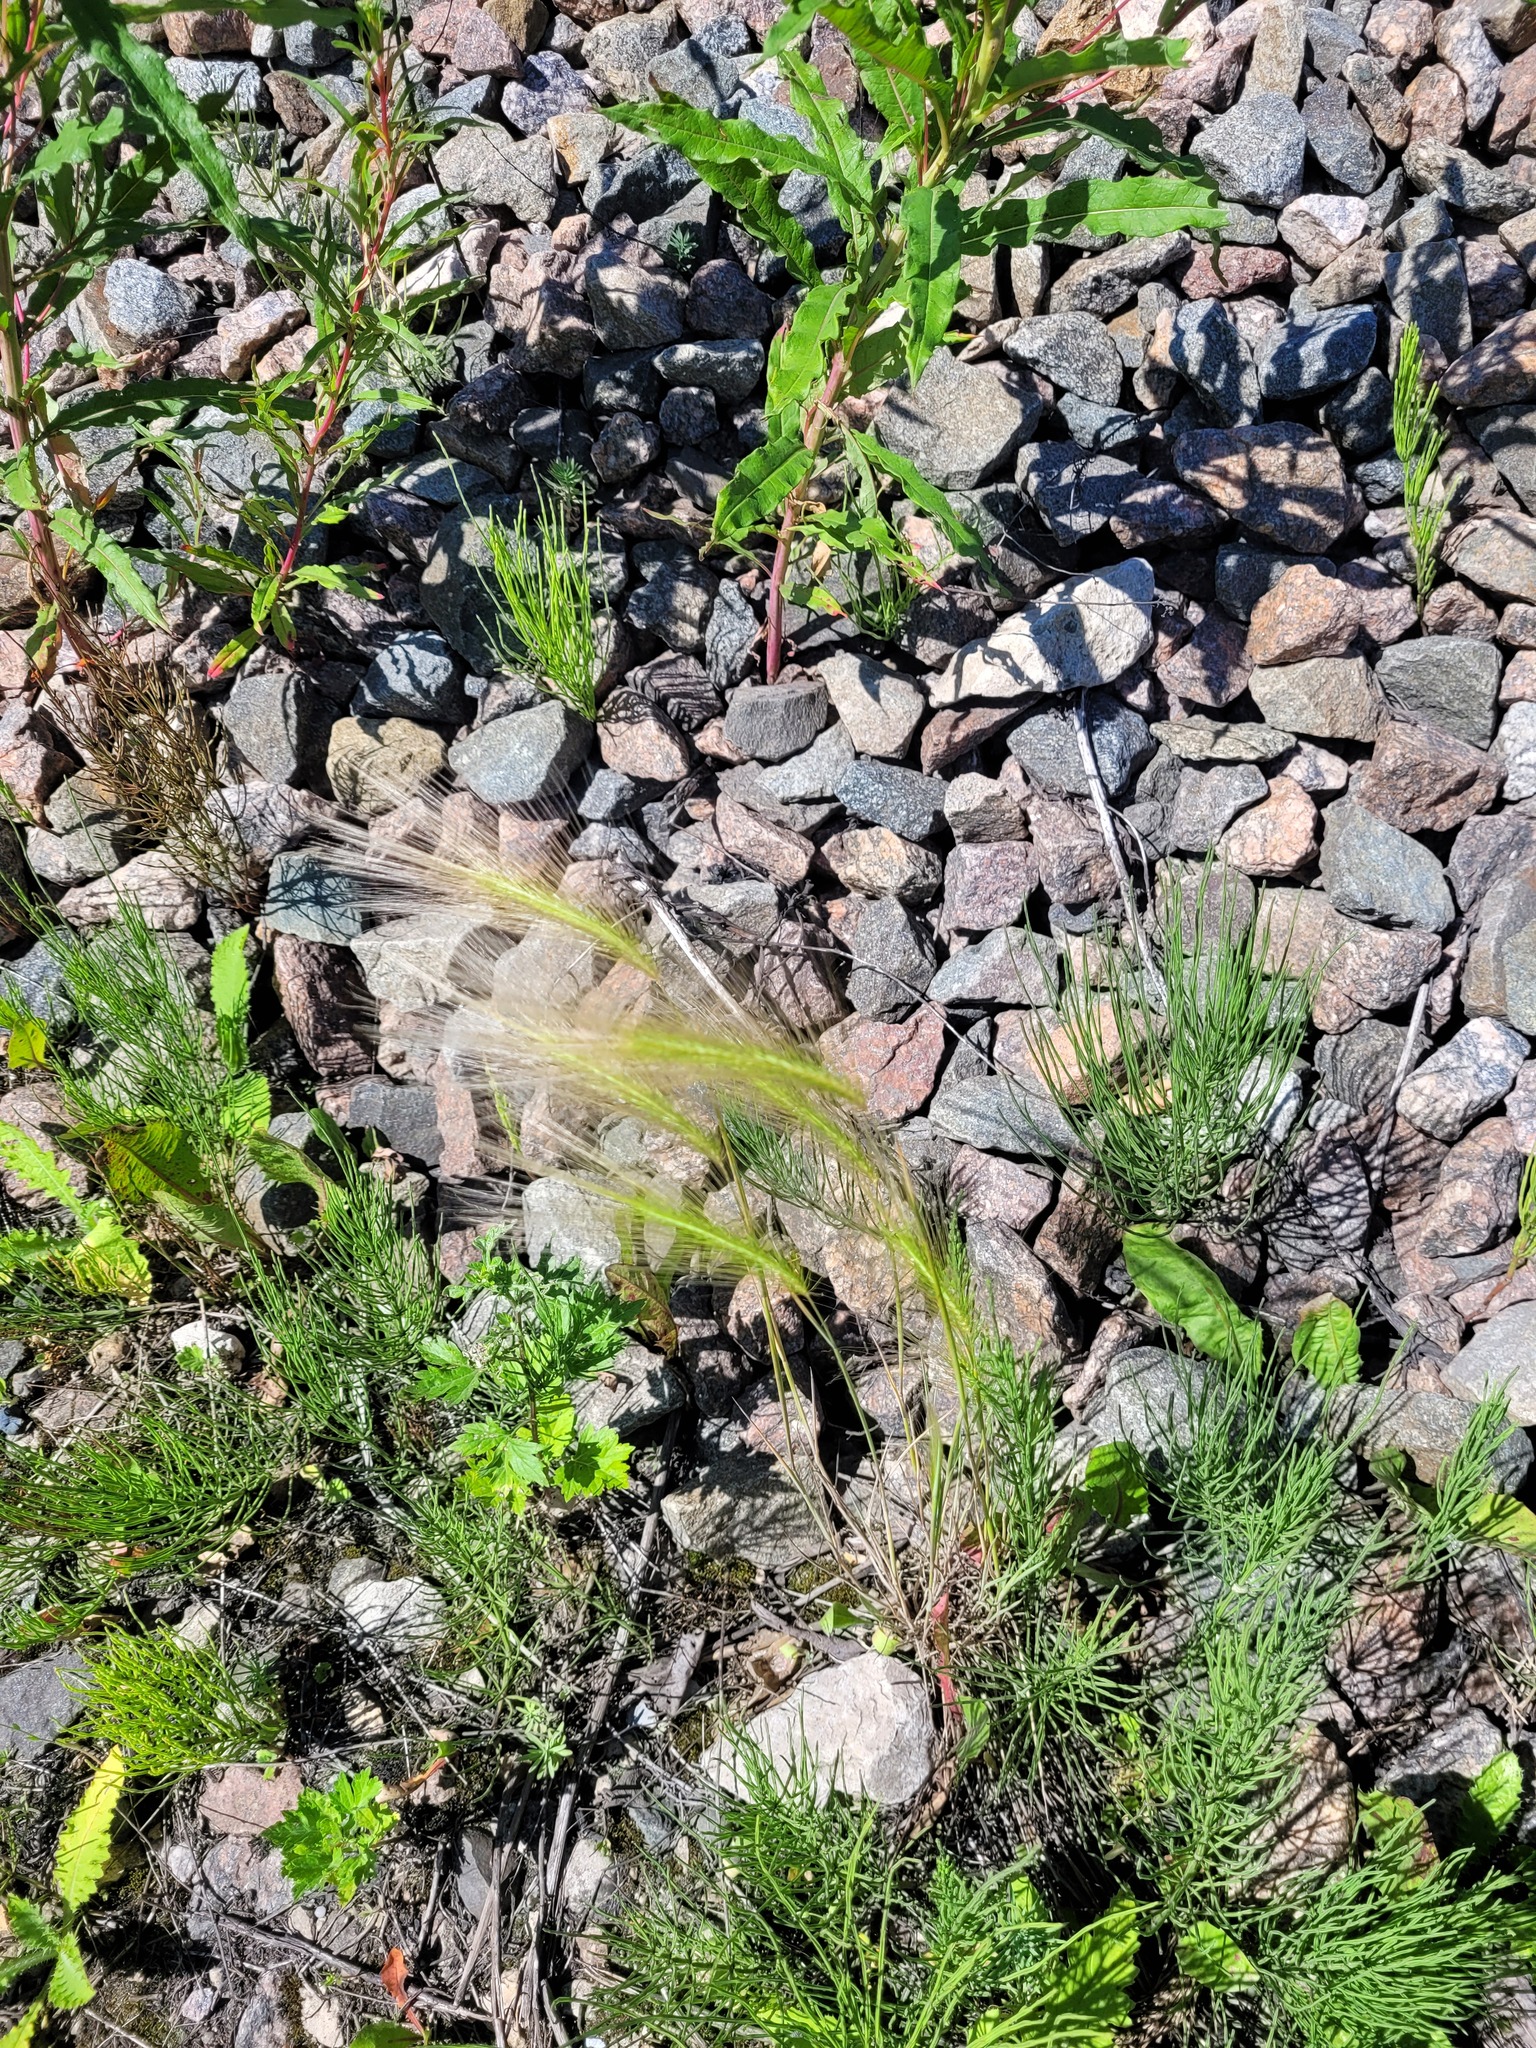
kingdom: Plantae
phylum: Tracheophyta
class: Liliopsida
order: Poales
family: Poaceae
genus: Hordeum
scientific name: Hordeum jubatum
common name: Foxtail barley
